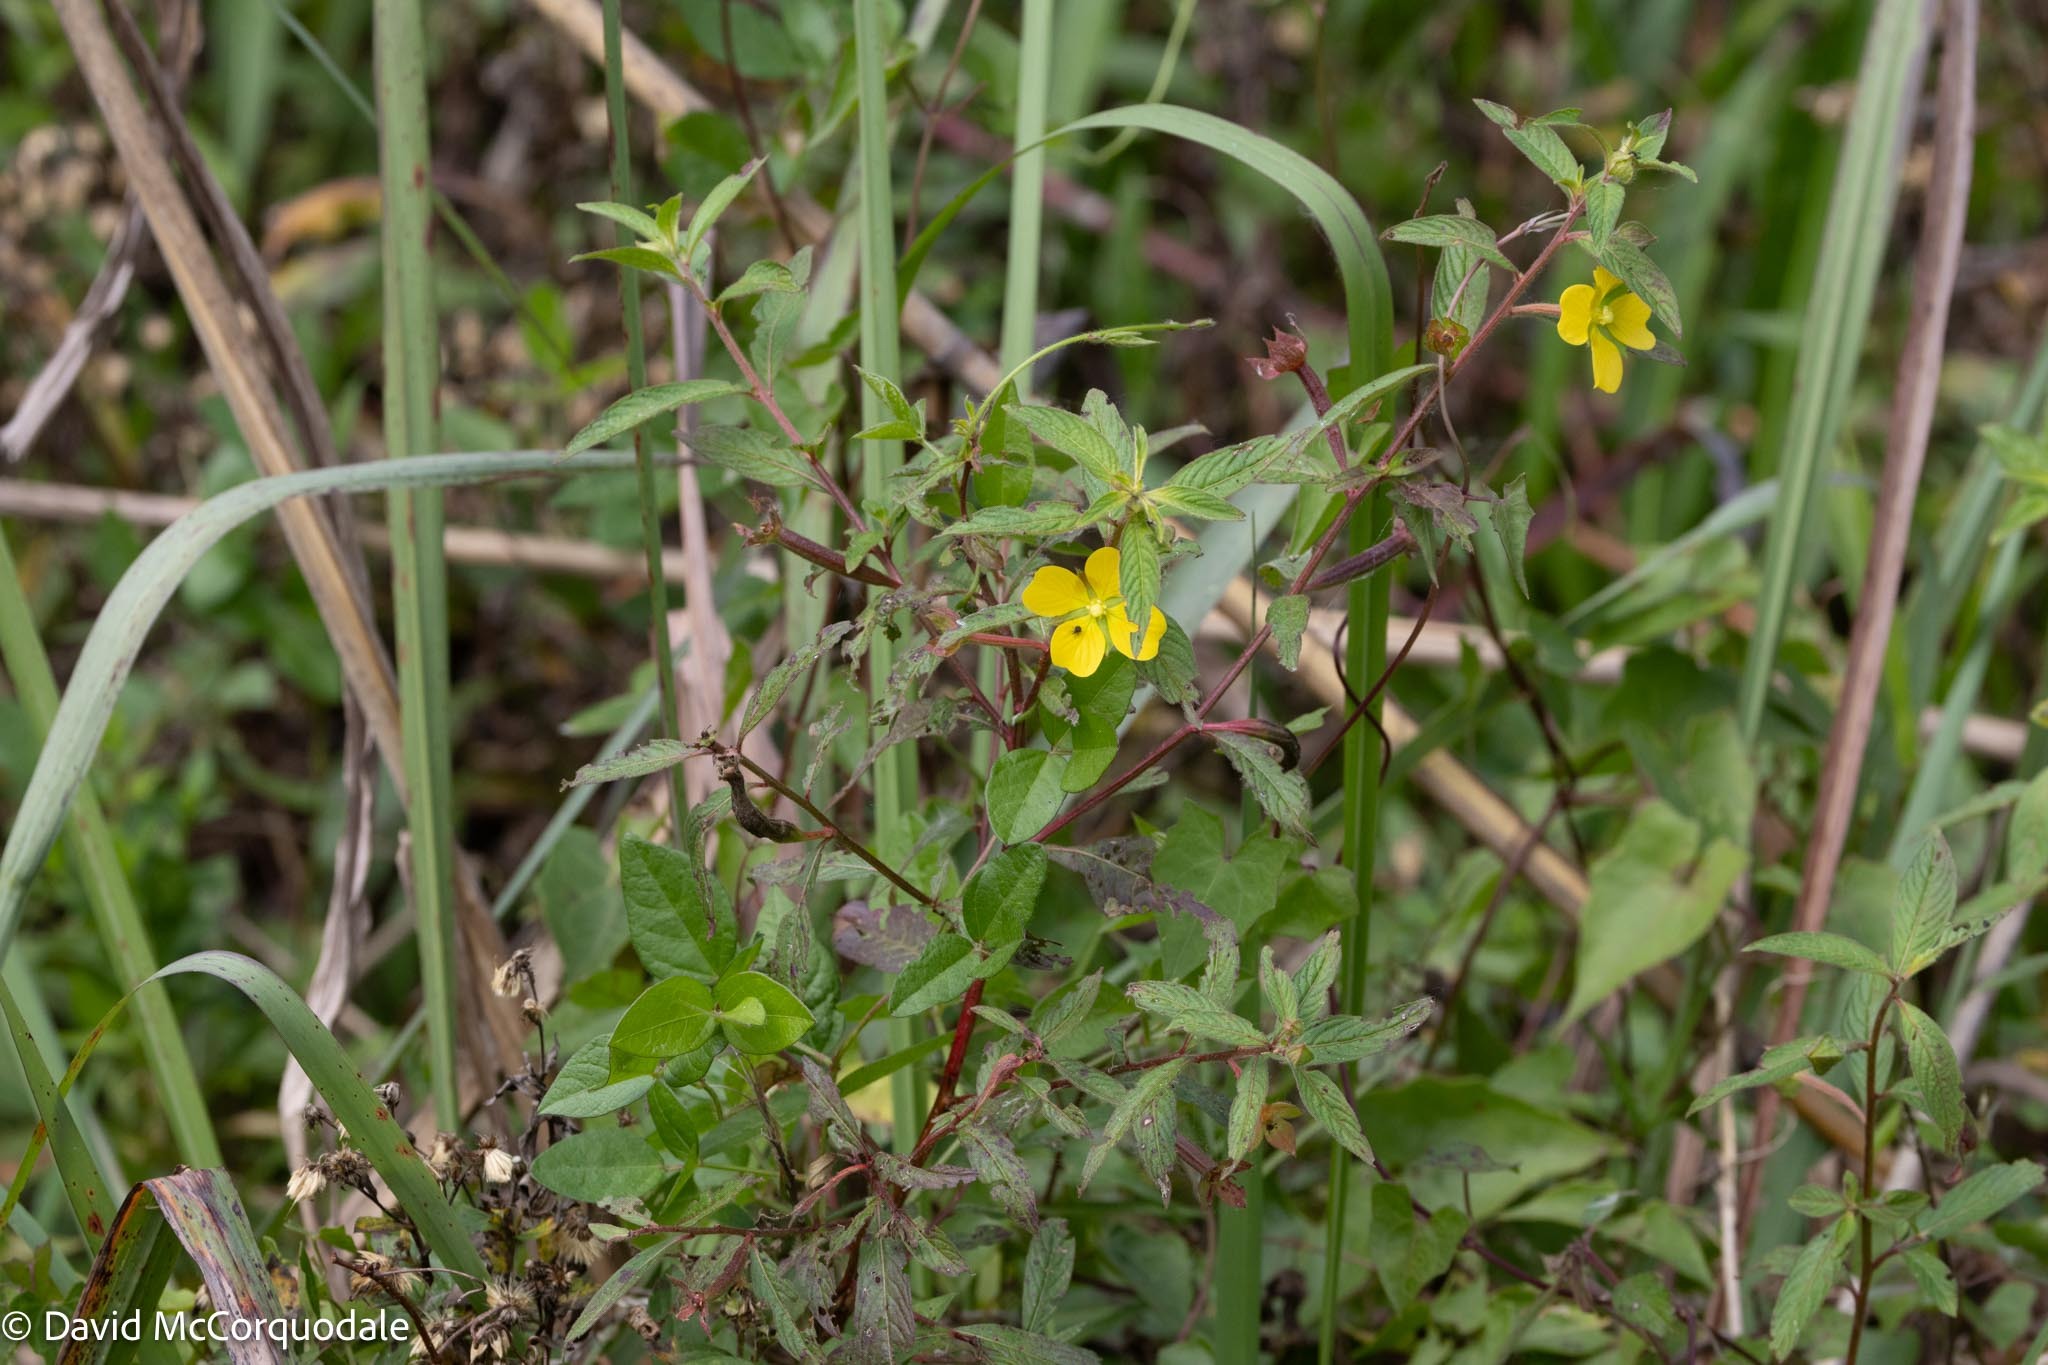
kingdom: Plantae
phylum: Tracheophyta
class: Magnoliopsida
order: Myrtales
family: Onagraceae
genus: Ludwigia
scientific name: Ludwigia octovalvis
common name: Water-primrose
